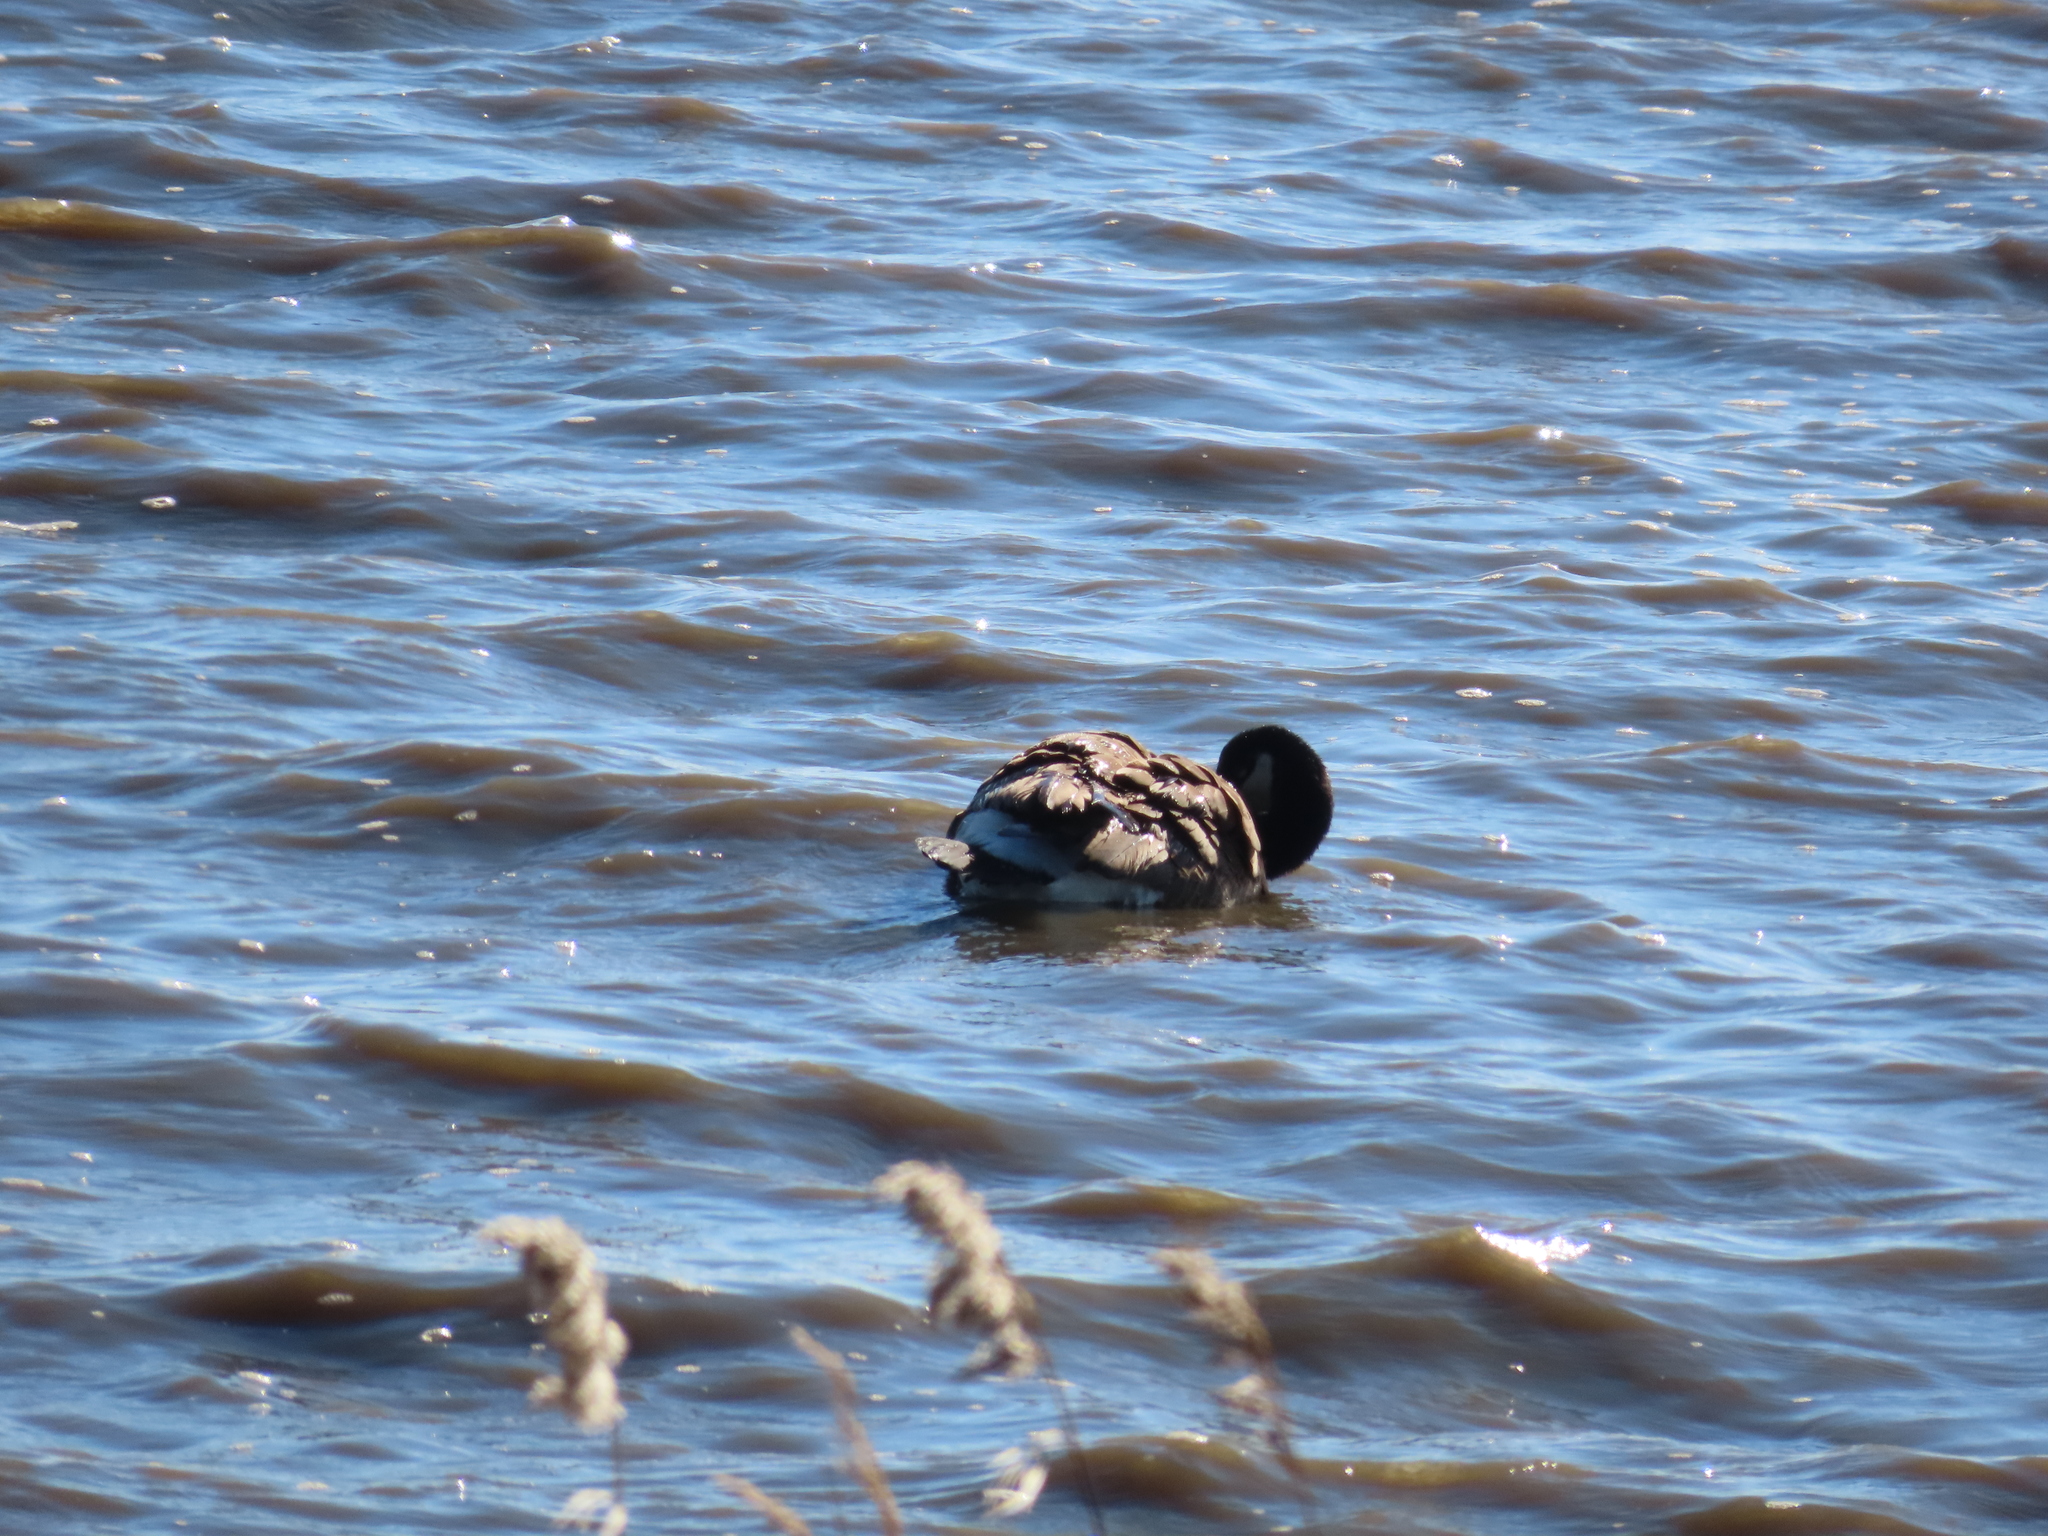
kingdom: Animalia
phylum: Chordata
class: Aves
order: Anseriformes
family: Anatidae
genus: Branta
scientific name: Branta canadensis
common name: Canada goose
